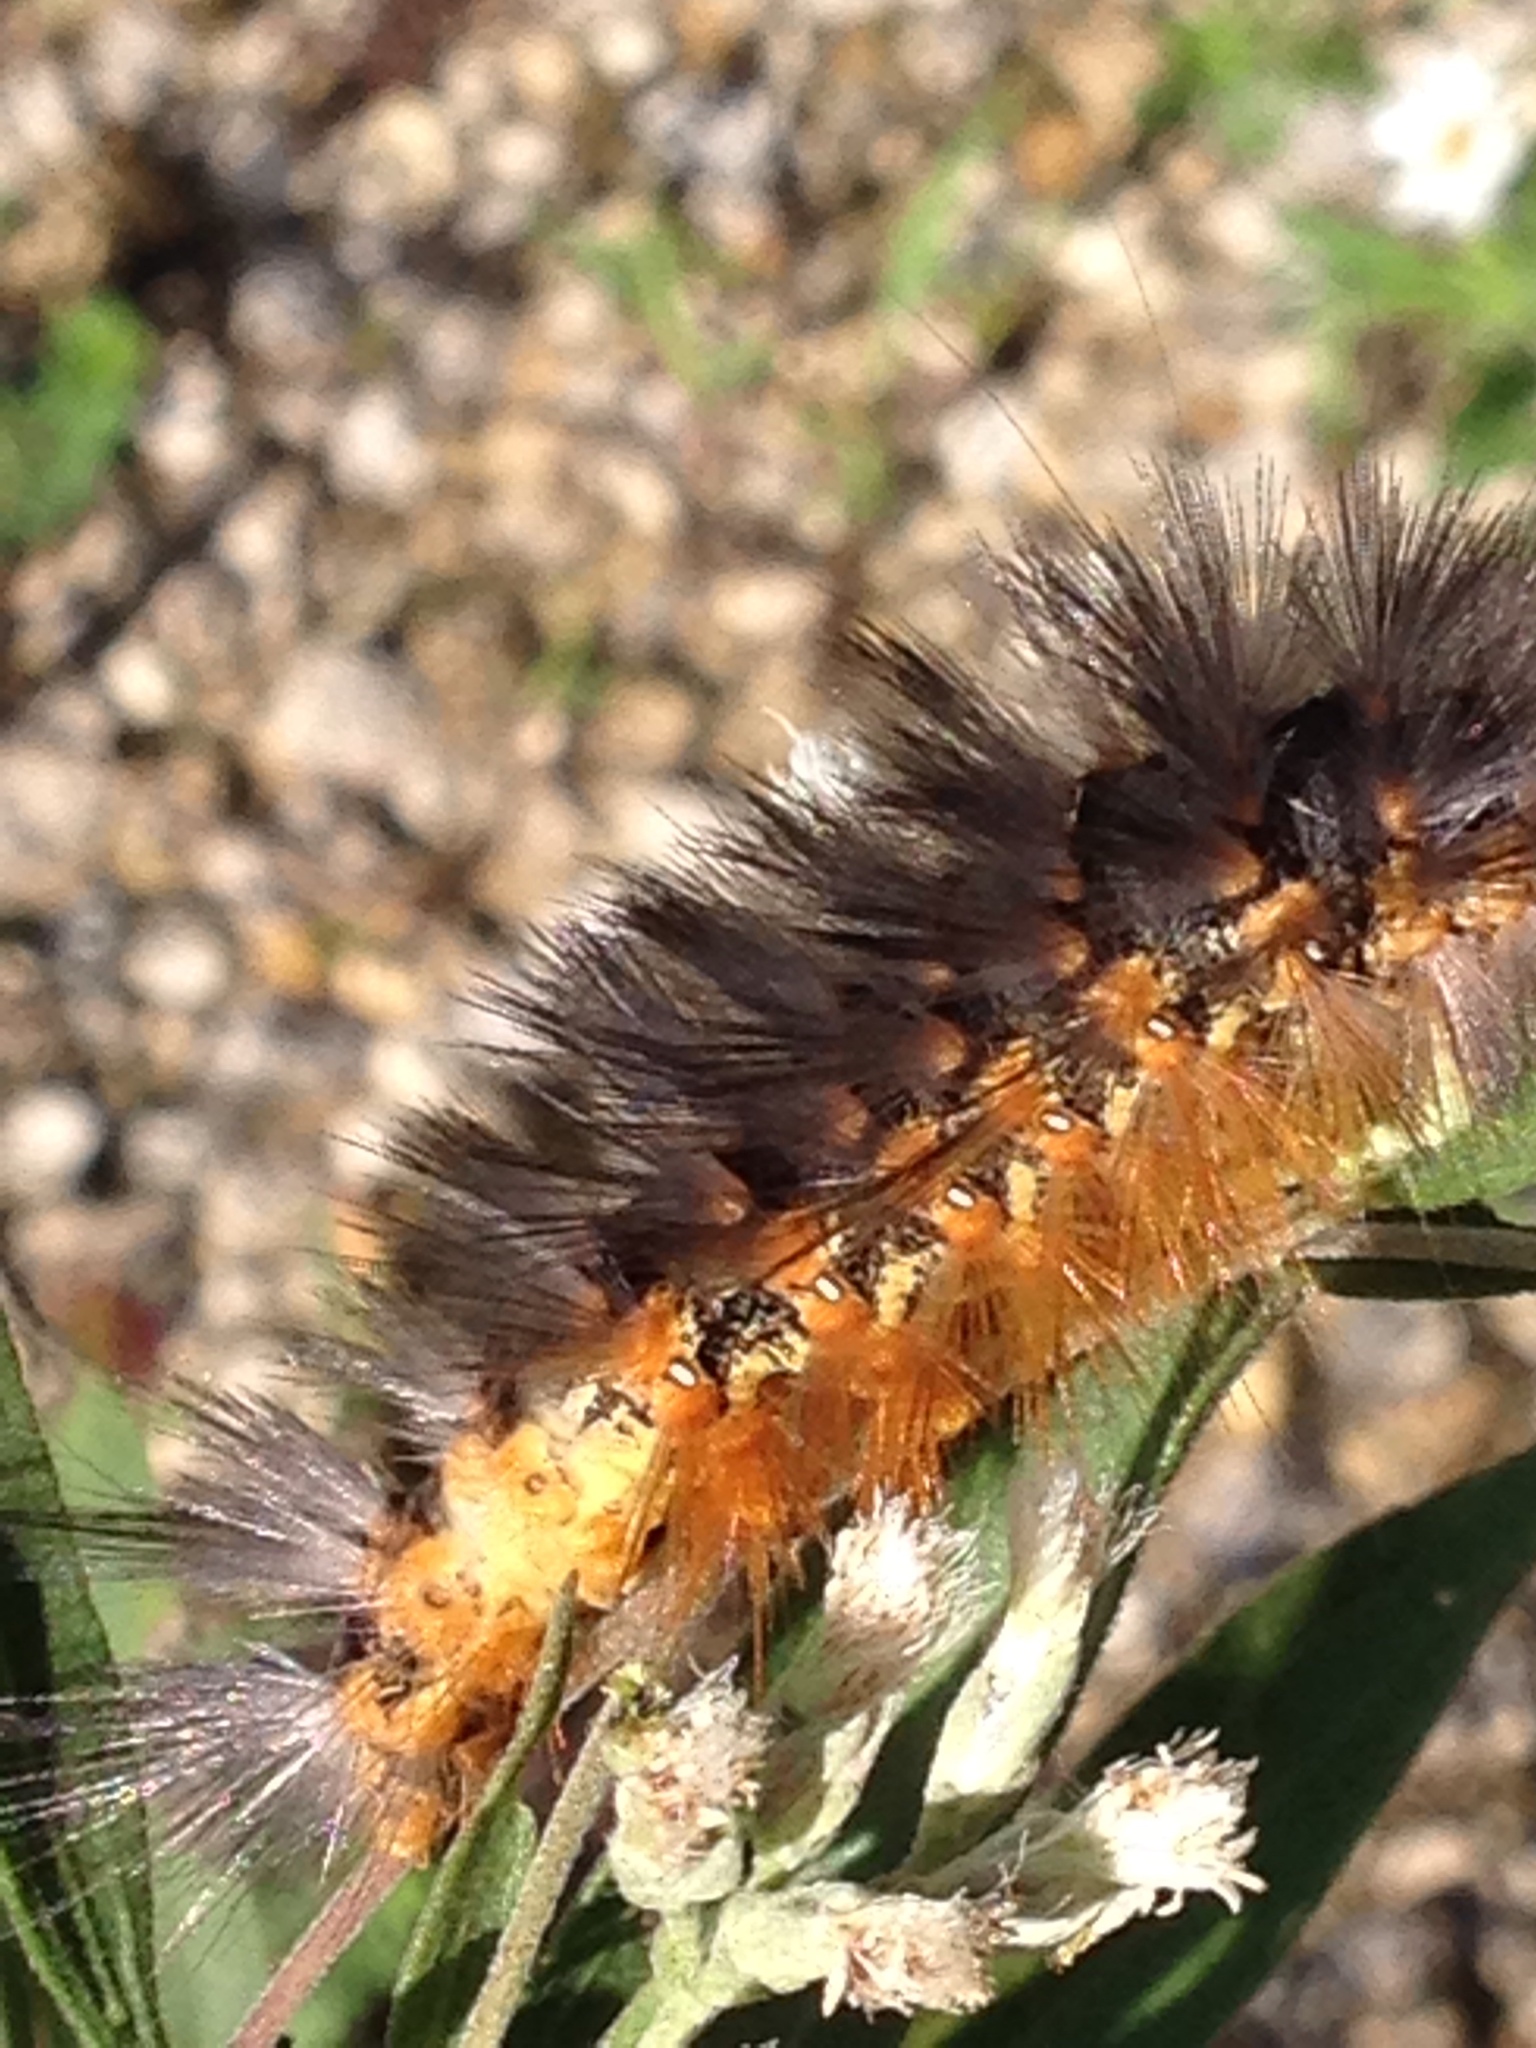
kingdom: Animalia
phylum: Arthropoda
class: Insecta
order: Lepidoptera
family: Erebidae
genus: Estigmene
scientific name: Estigmene acrea
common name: Salt marsh moth
